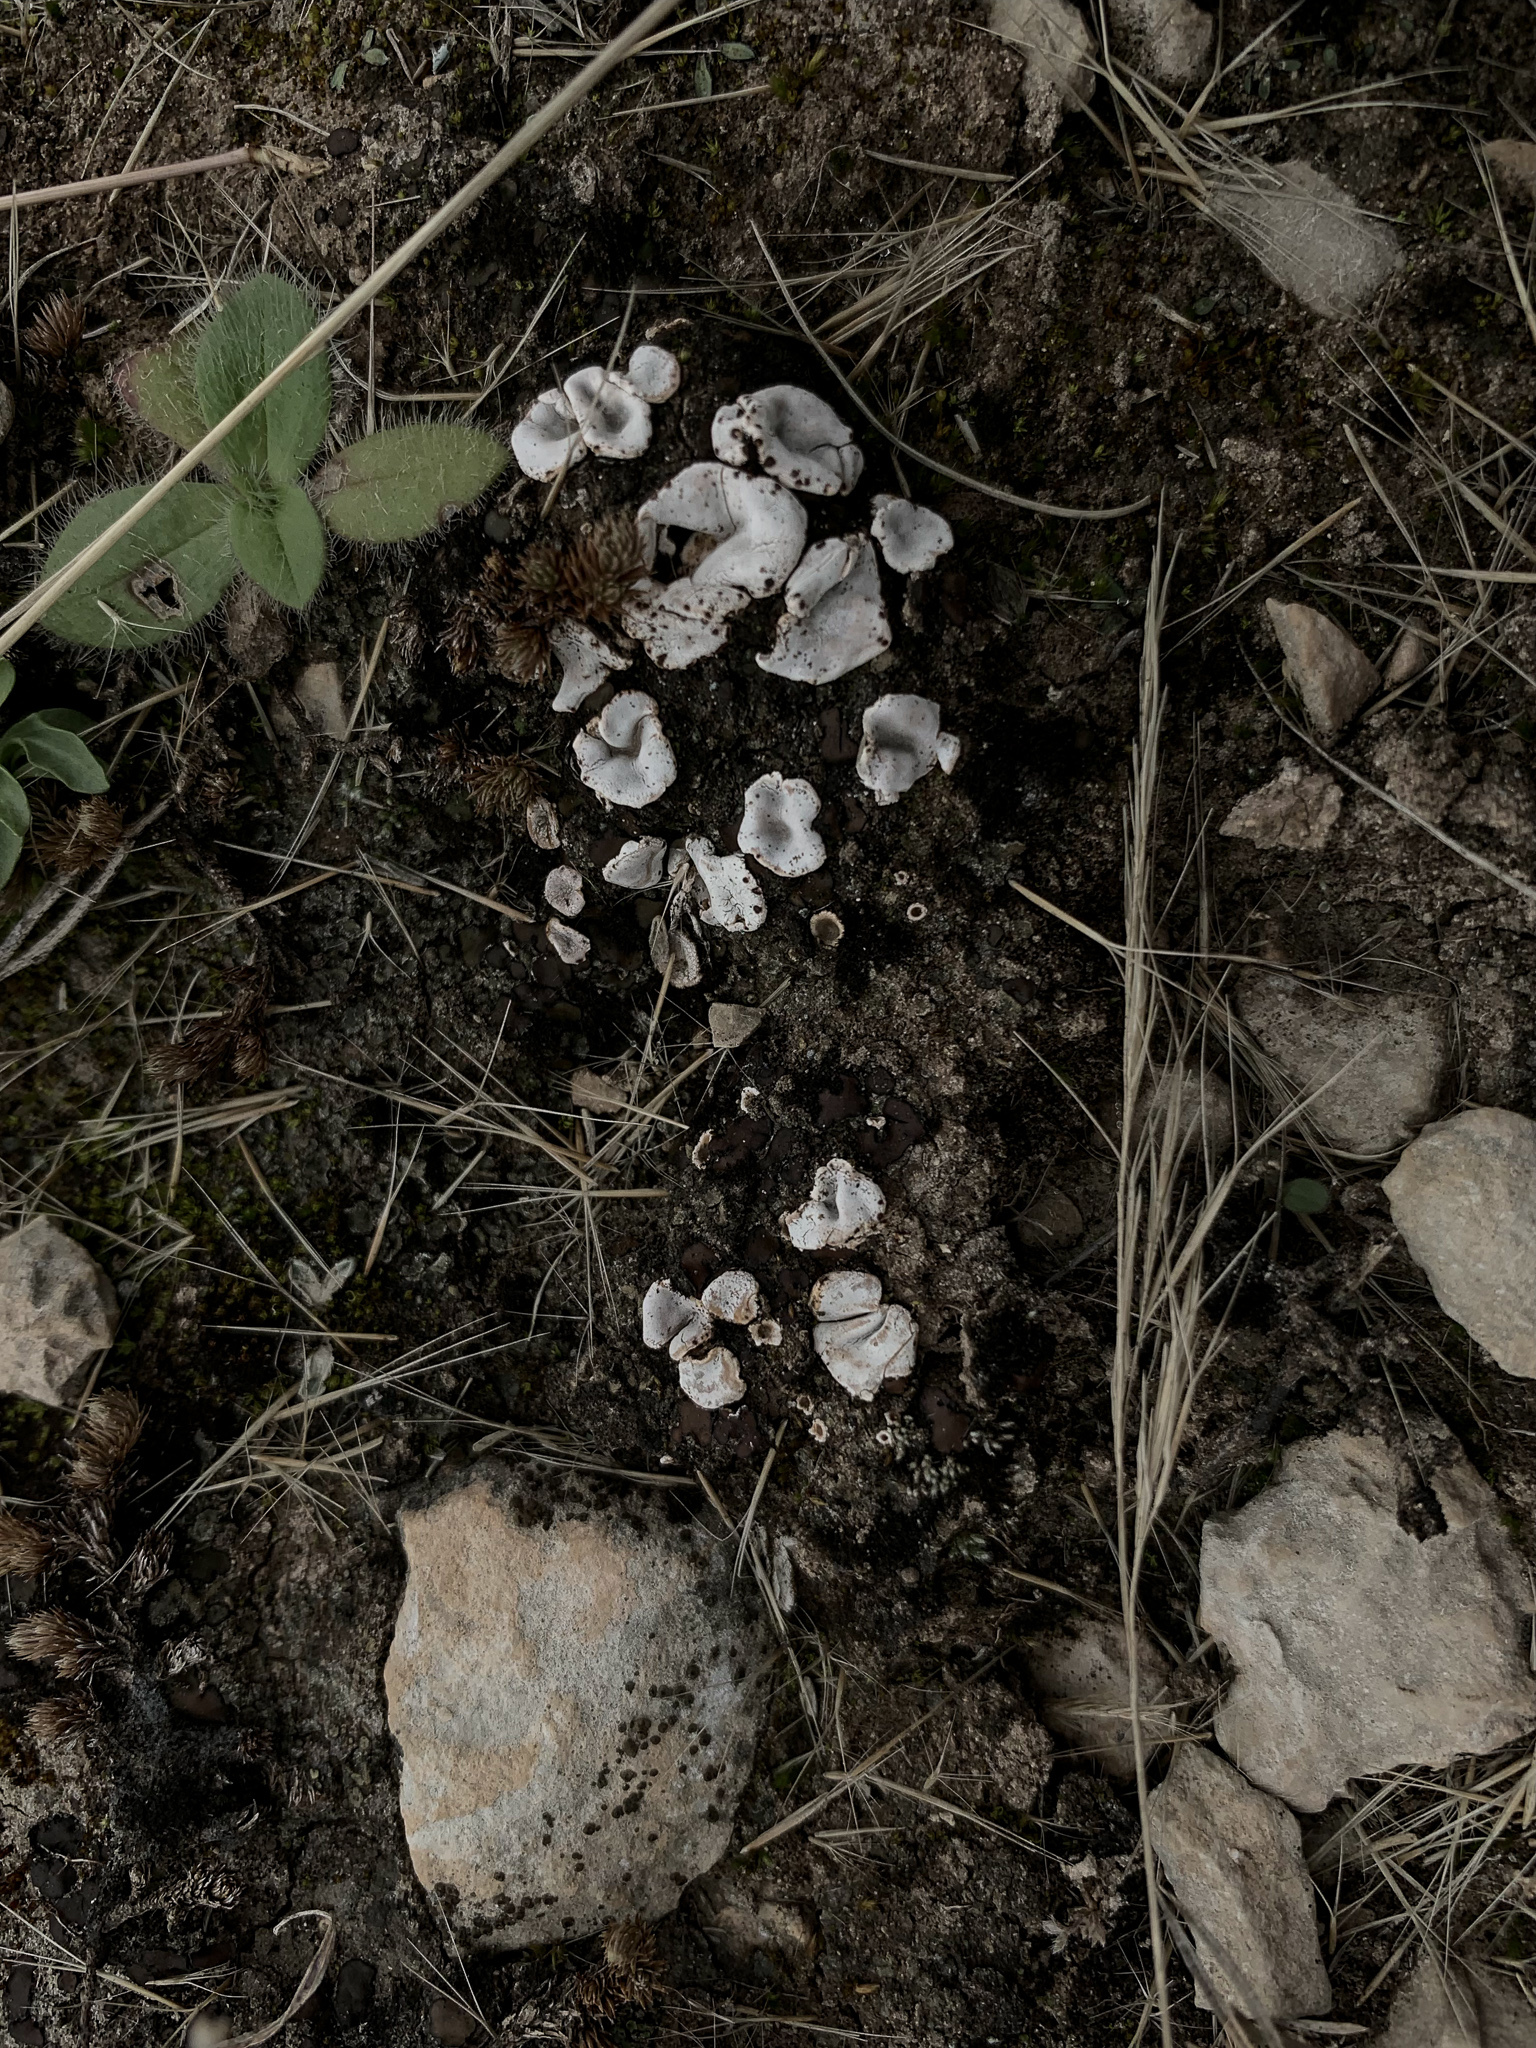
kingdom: Fungi
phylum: Ascomycota
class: Lecanoromycetes
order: Lecanorales
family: Psoraceae
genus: Psora
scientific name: Psora crenata
